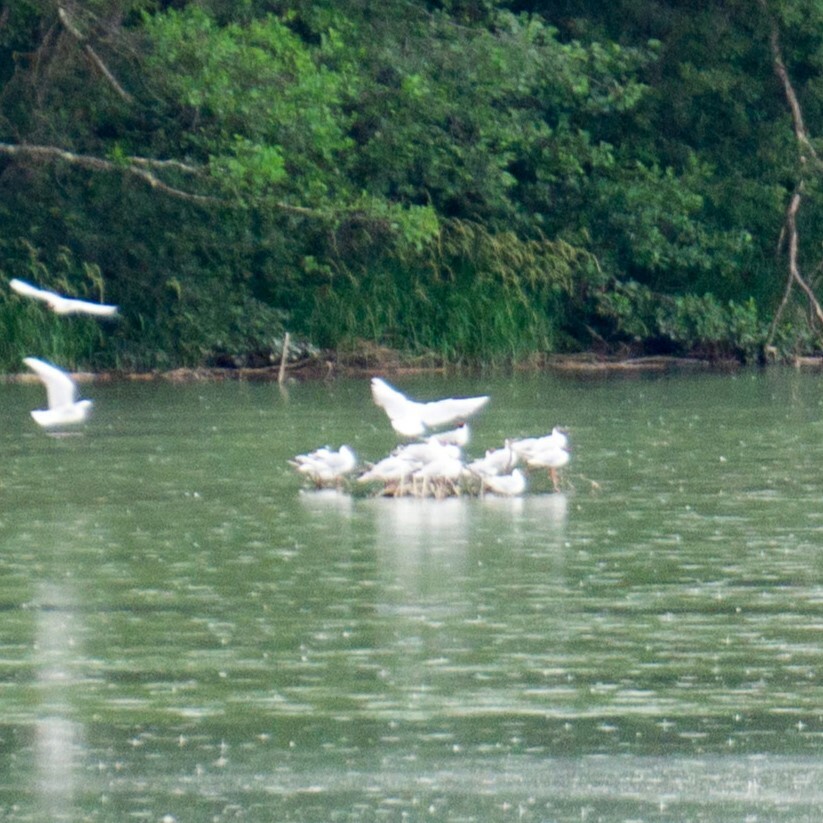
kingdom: Animalia
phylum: Chordata
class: Aves
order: Charadriiformes
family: Laridae
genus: Chroicocephalus
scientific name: Chroicocephalus ridibundus
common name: Black-headed gull
